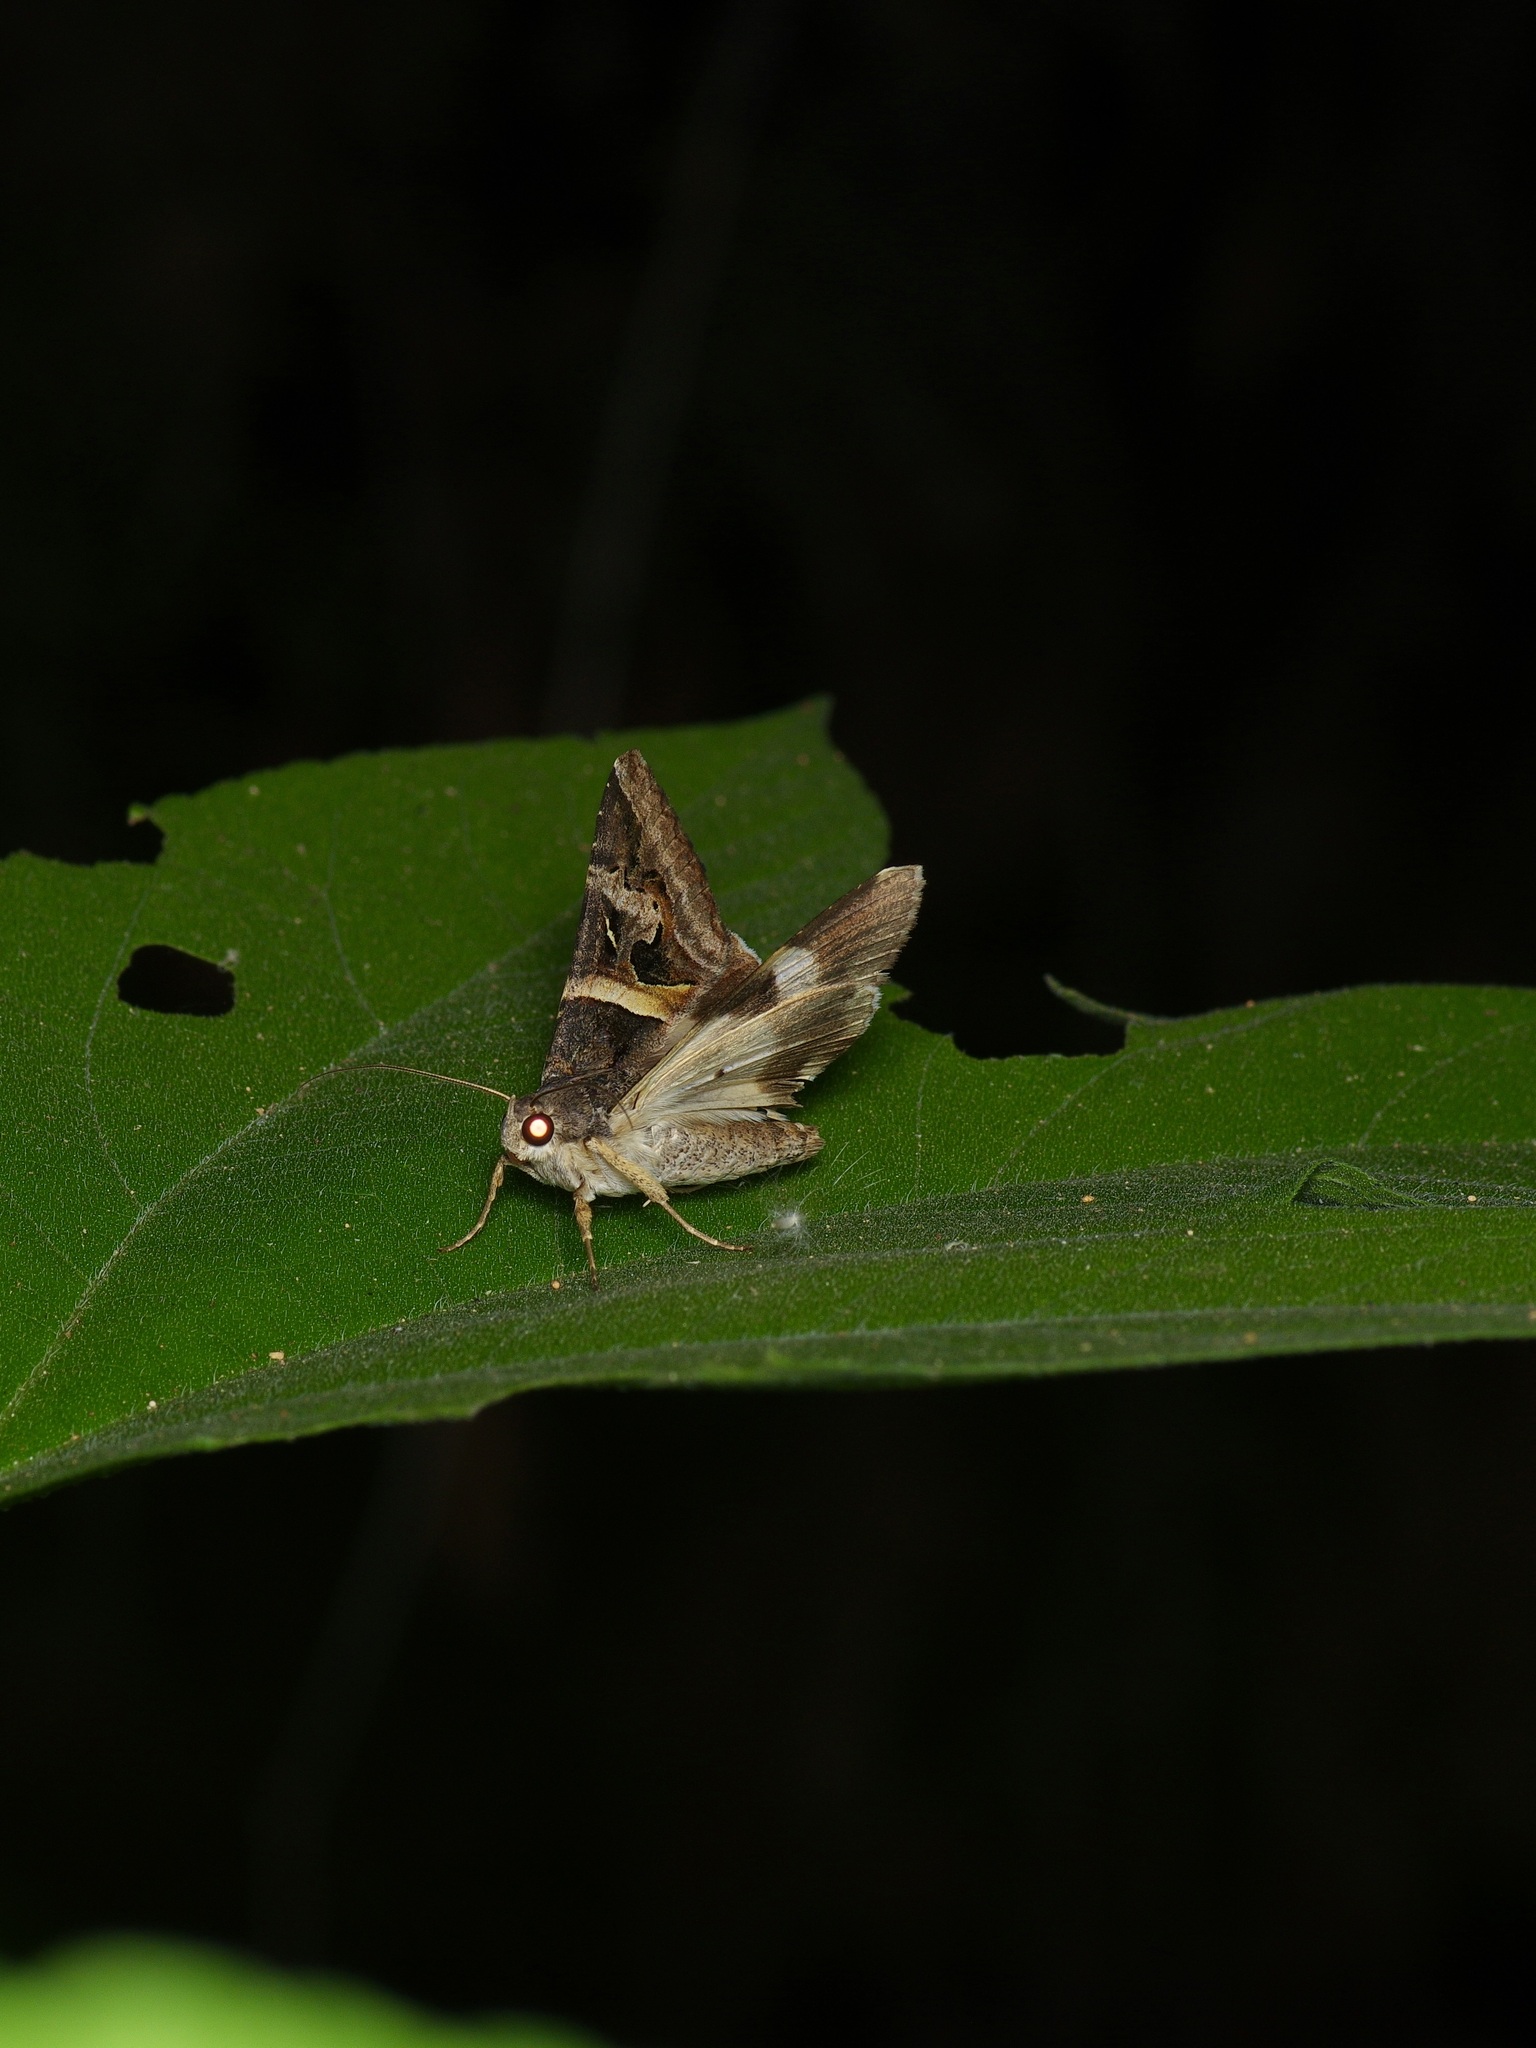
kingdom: Animalia
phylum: Arthropoda
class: Insecta
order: Lepidoptera
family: Erebidae
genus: Melipotis
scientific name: Melipotis indomita
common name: Moth
